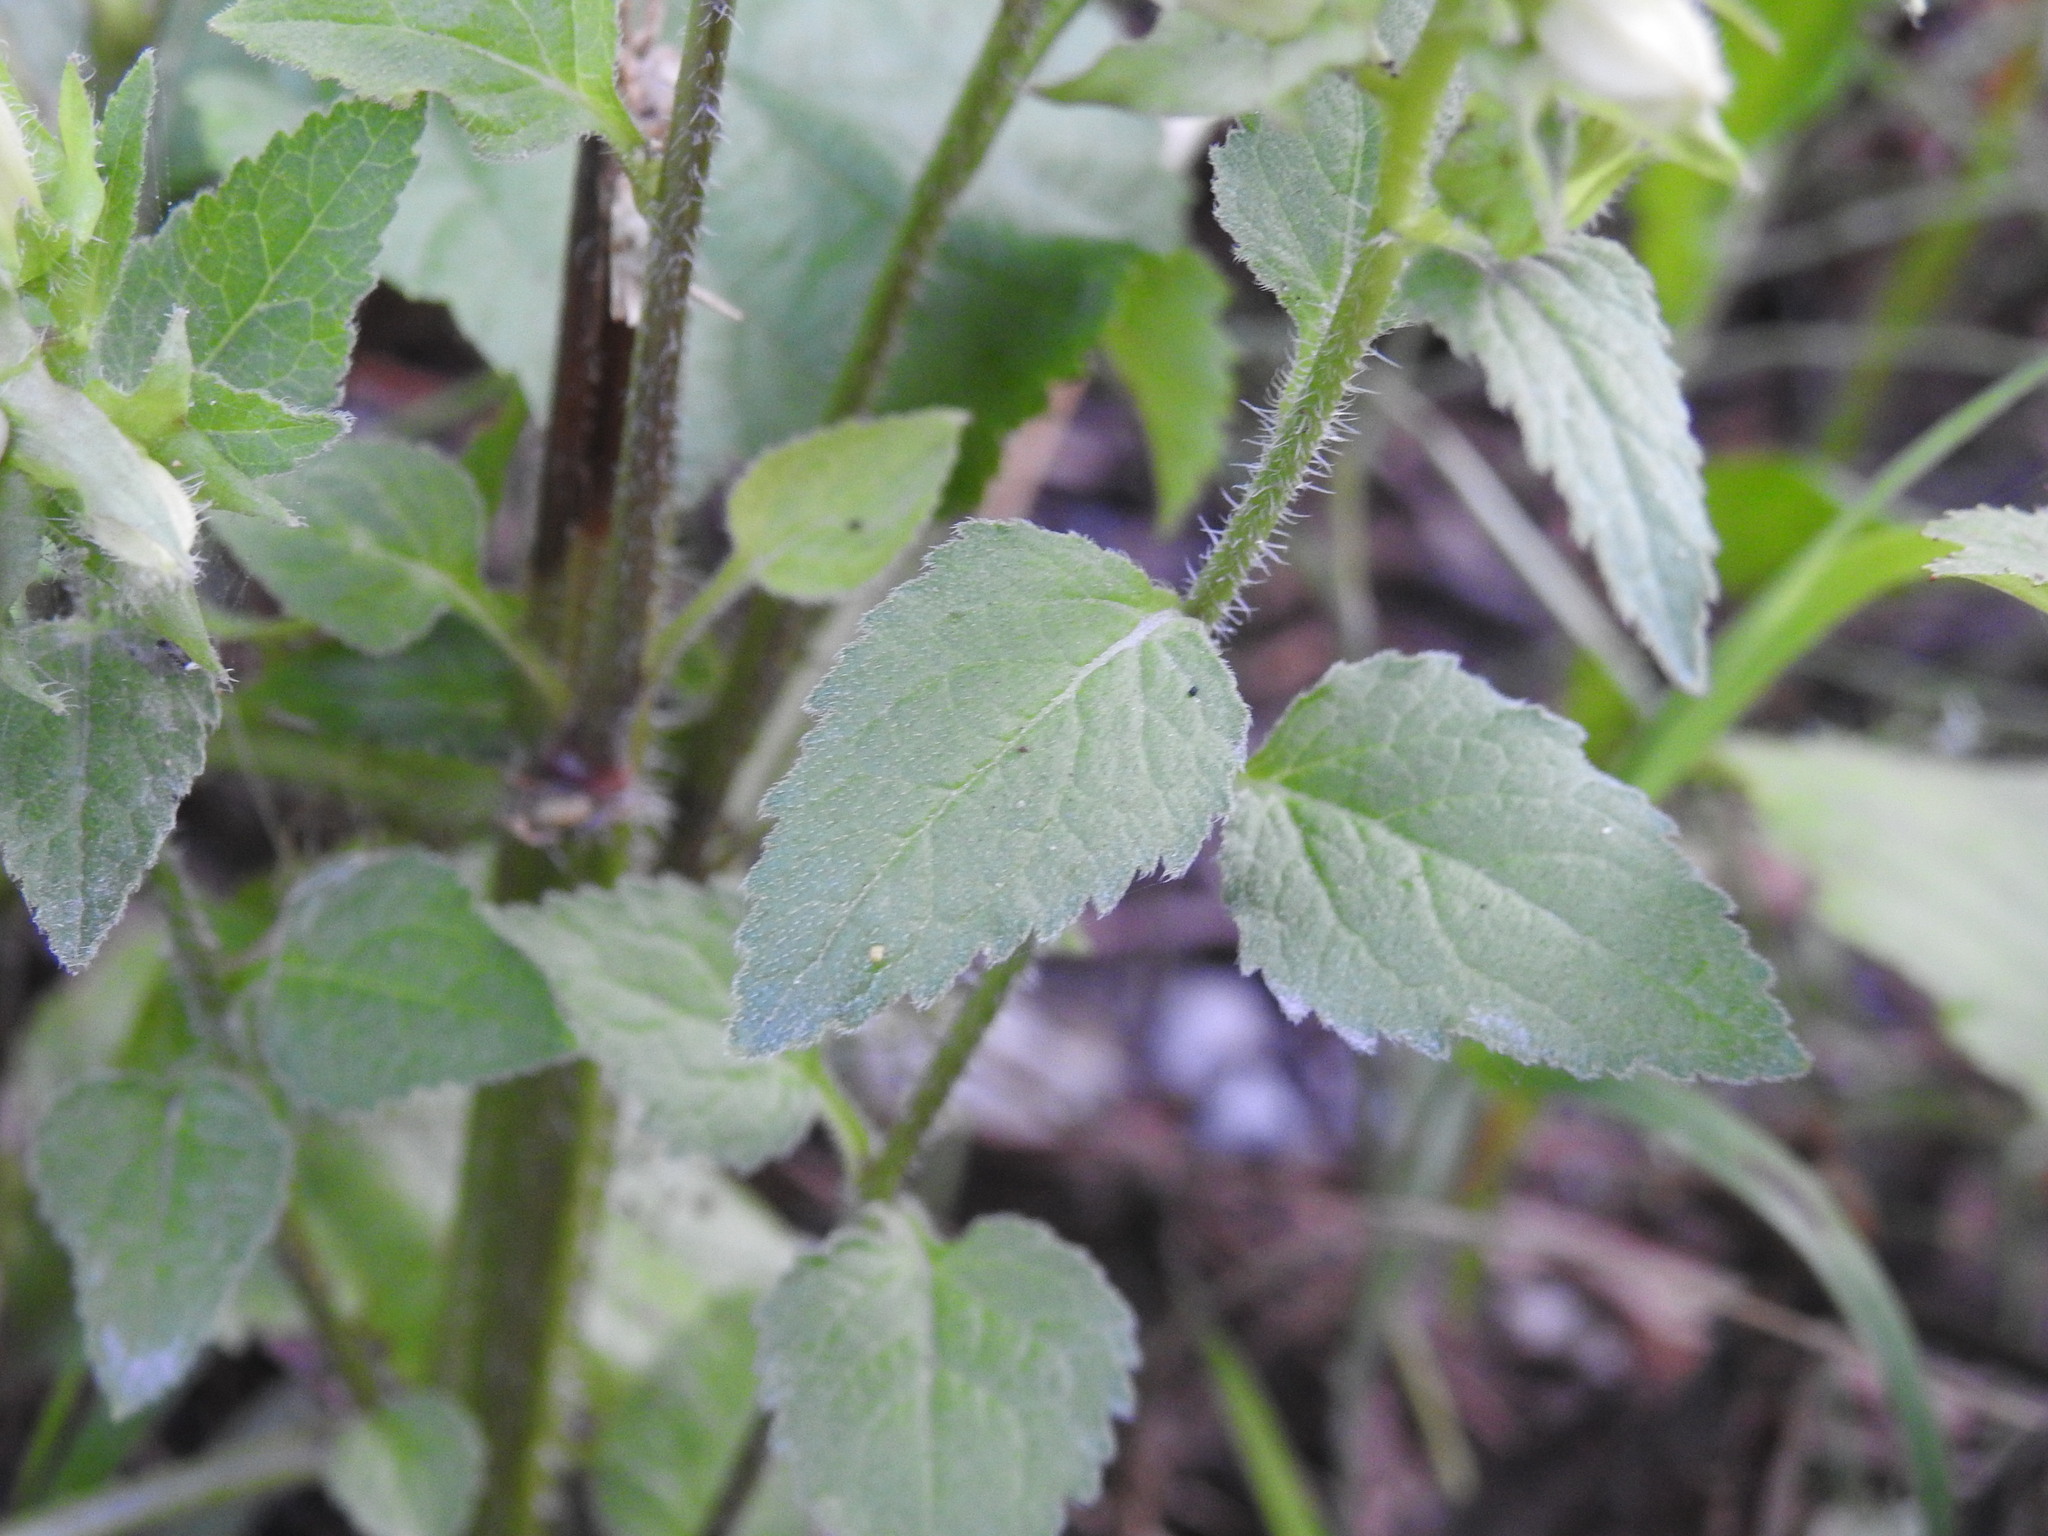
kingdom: Plantae
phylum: Tracheophyta
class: Magnoliopsida
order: Asterales
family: Campanulaceae
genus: Campanula
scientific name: Campanula trachelium
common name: Nettle-leaved bellflower
